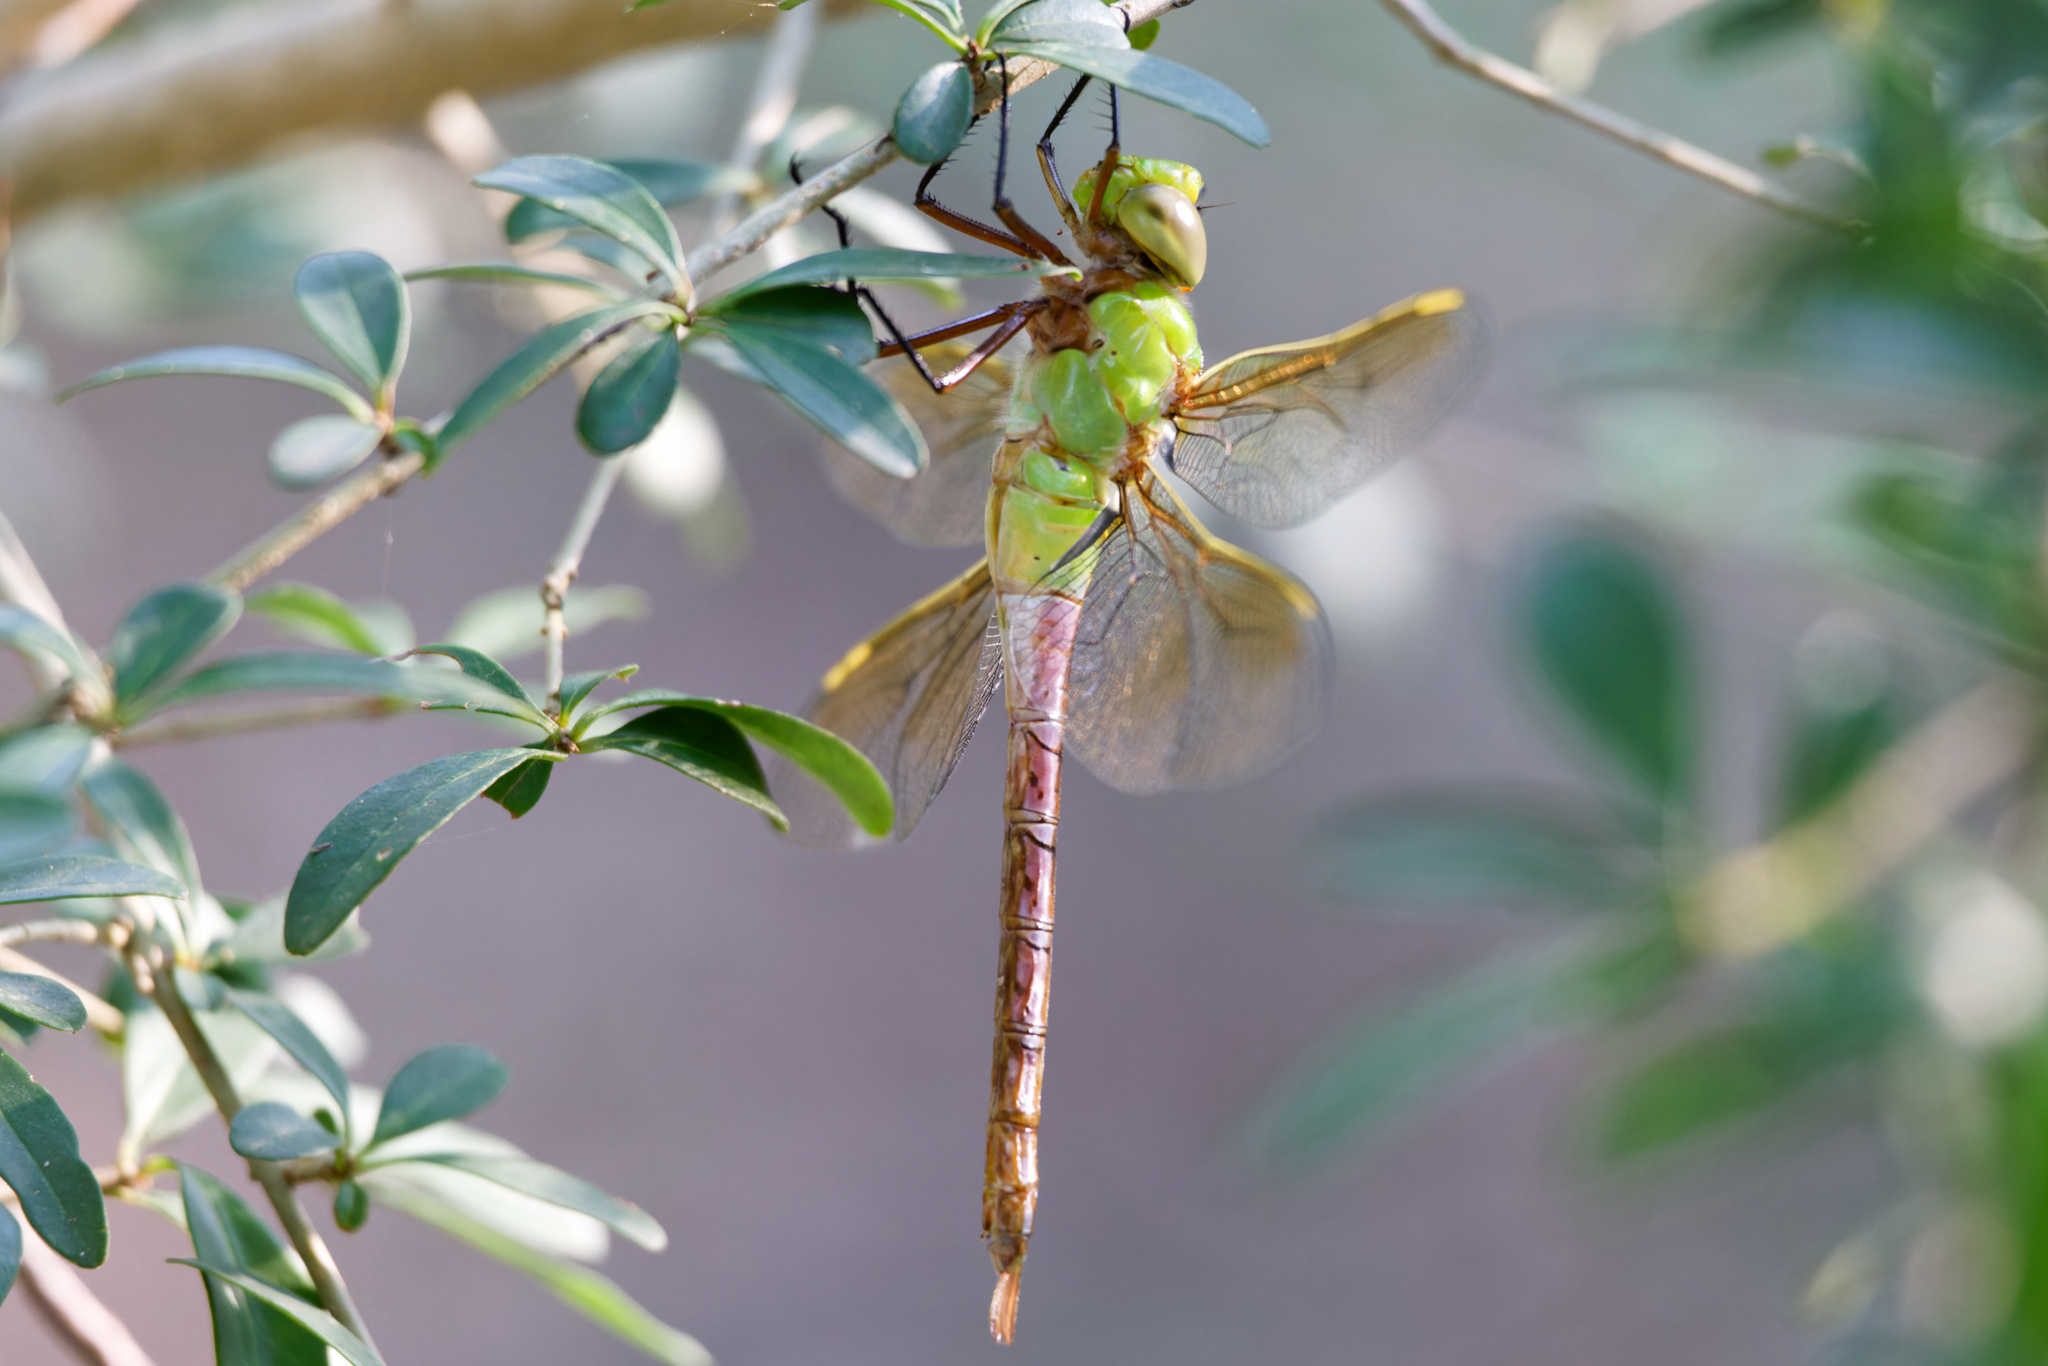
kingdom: Animalia
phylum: Arthropoda
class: Insecta
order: Odonata
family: Aeshnidae
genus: Anax
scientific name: Anax junius
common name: Common green darner
